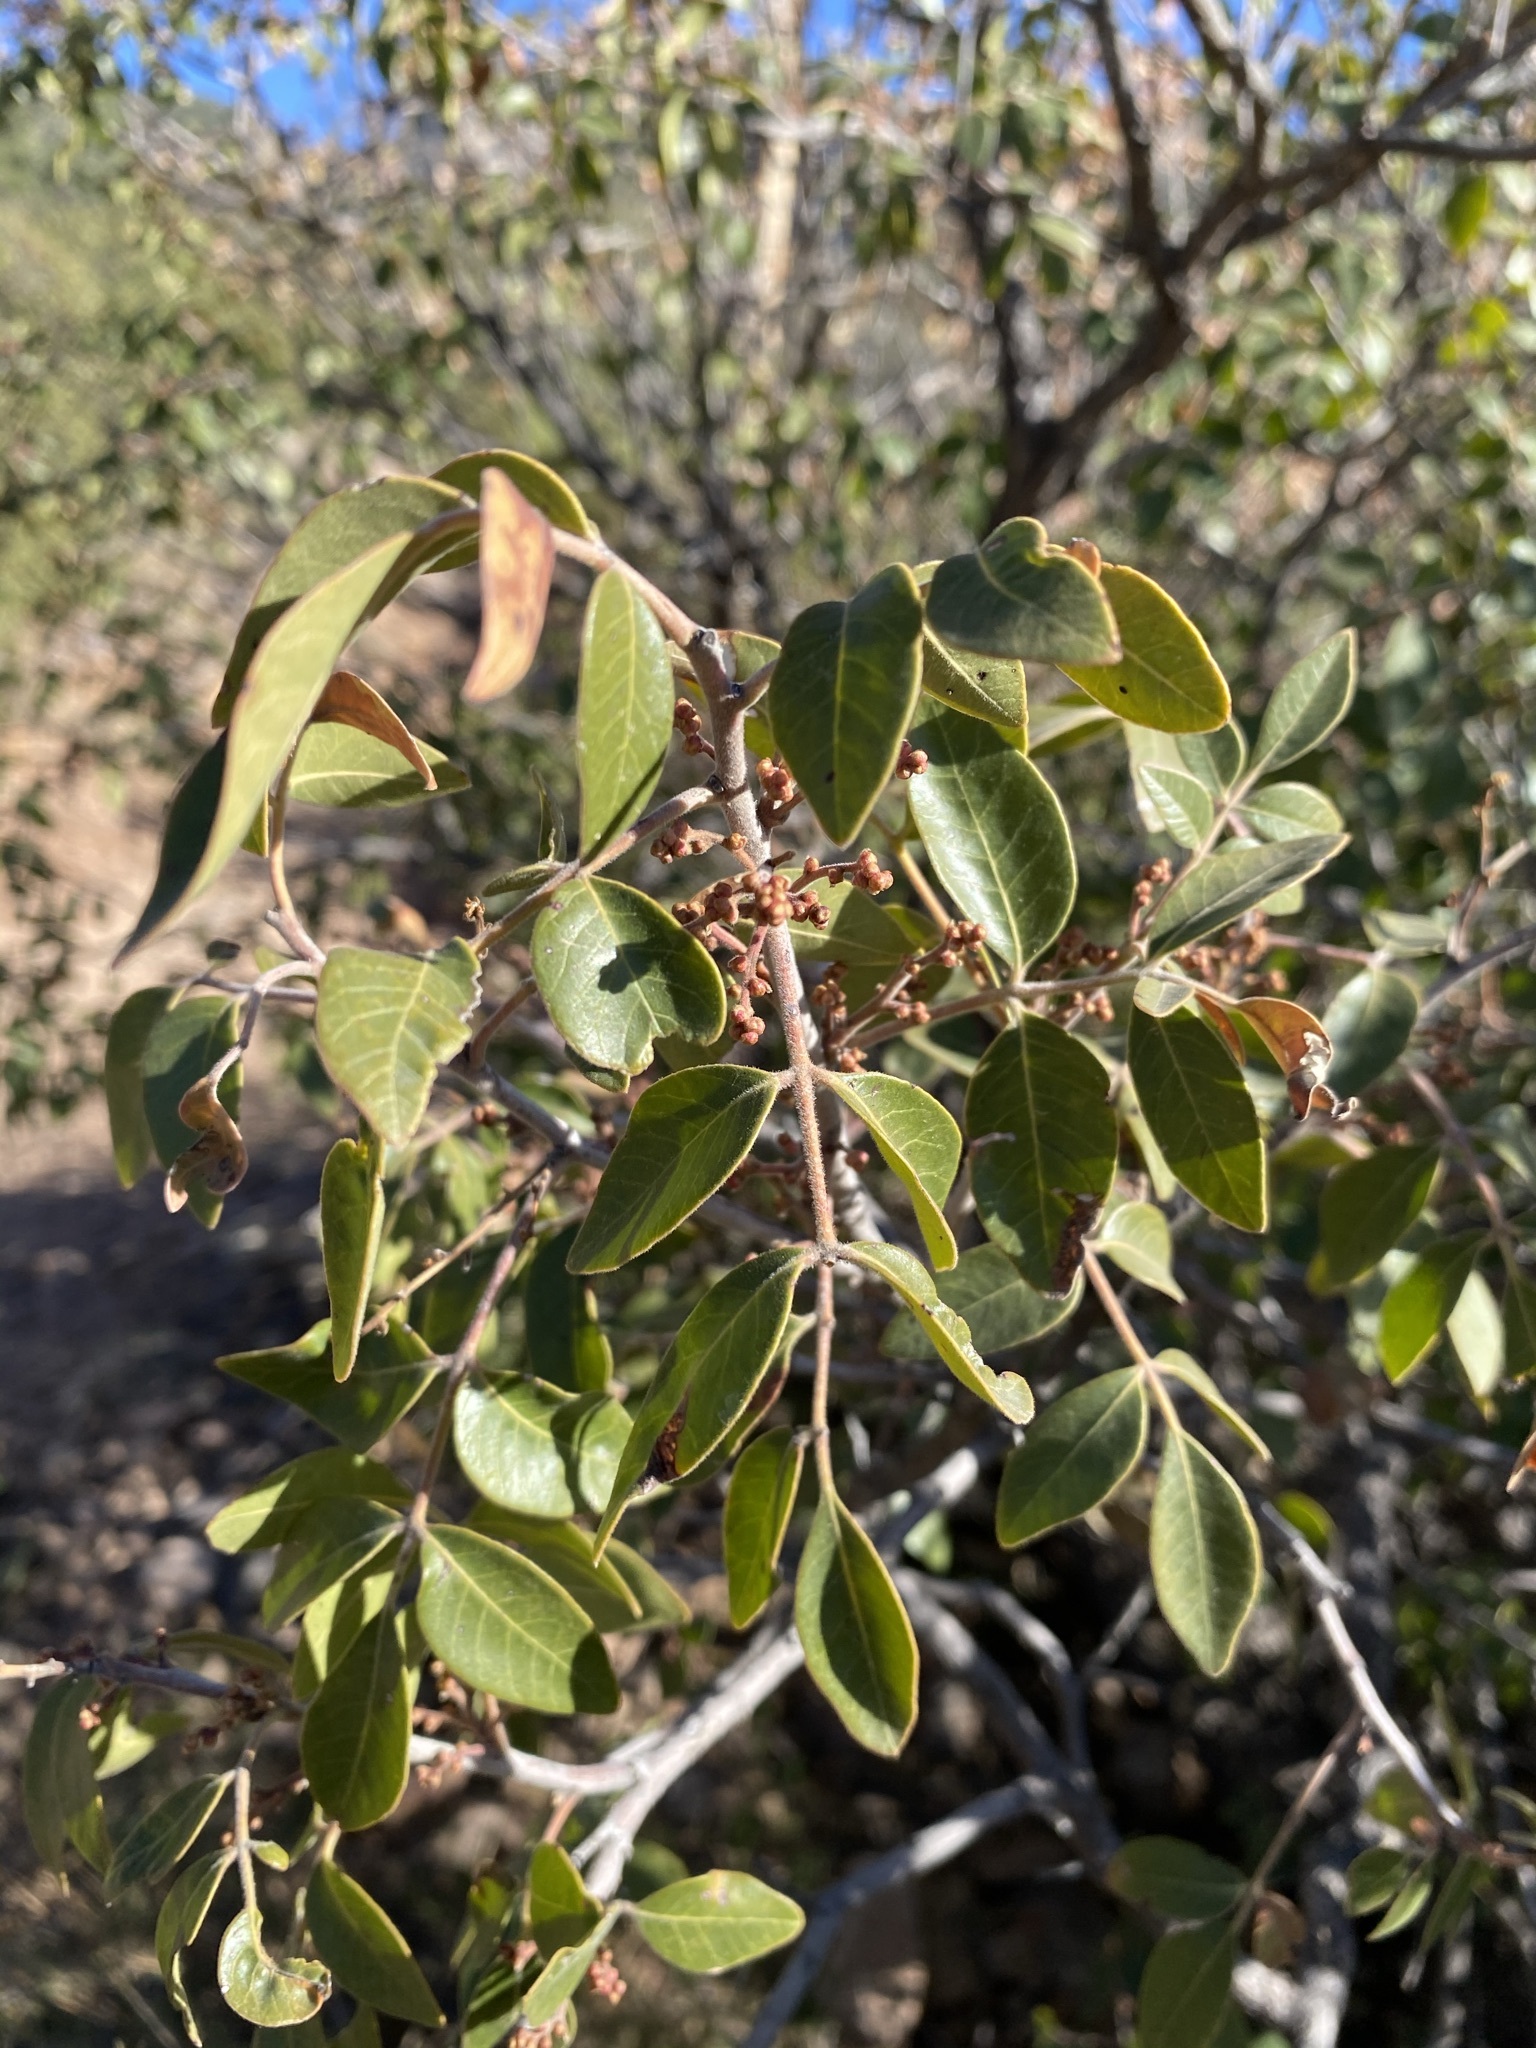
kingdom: Plantae
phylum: Tracheophyta
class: Magnoliopsida
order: Sapindales
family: Anacardiaceae
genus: Rhus
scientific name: Rhus virens
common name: Evergreen sumac
